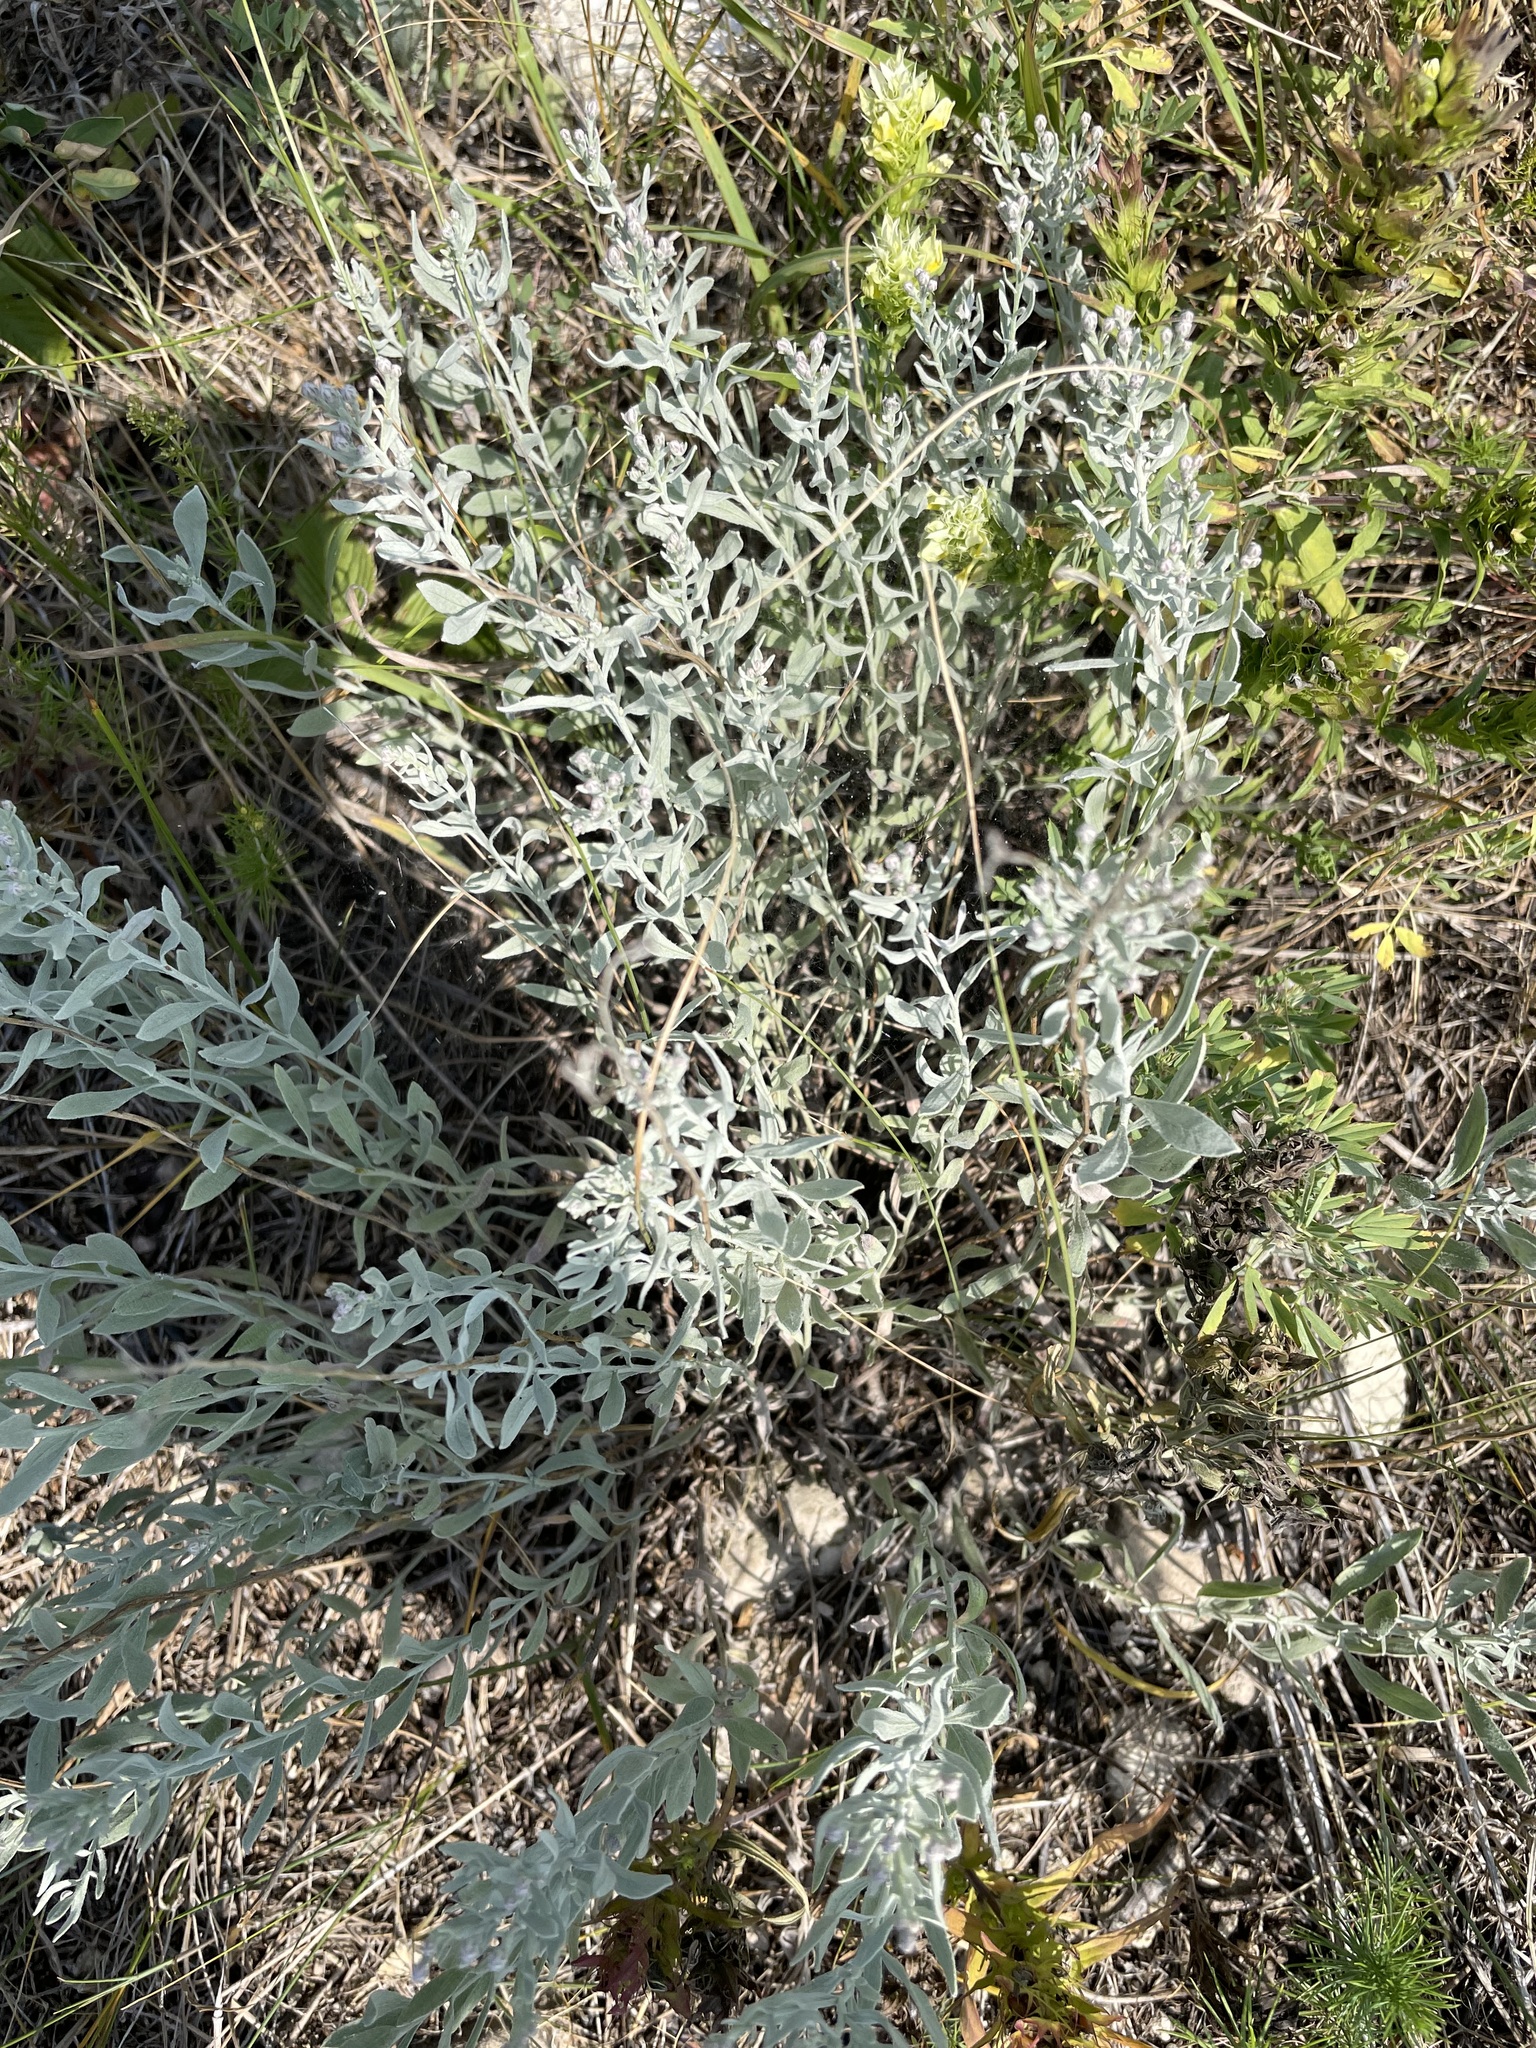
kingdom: Plantae
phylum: Tracheophyta
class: Magnoliopsida
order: Asterales
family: Asteraceae
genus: Galatella
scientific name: Galatella villosa
